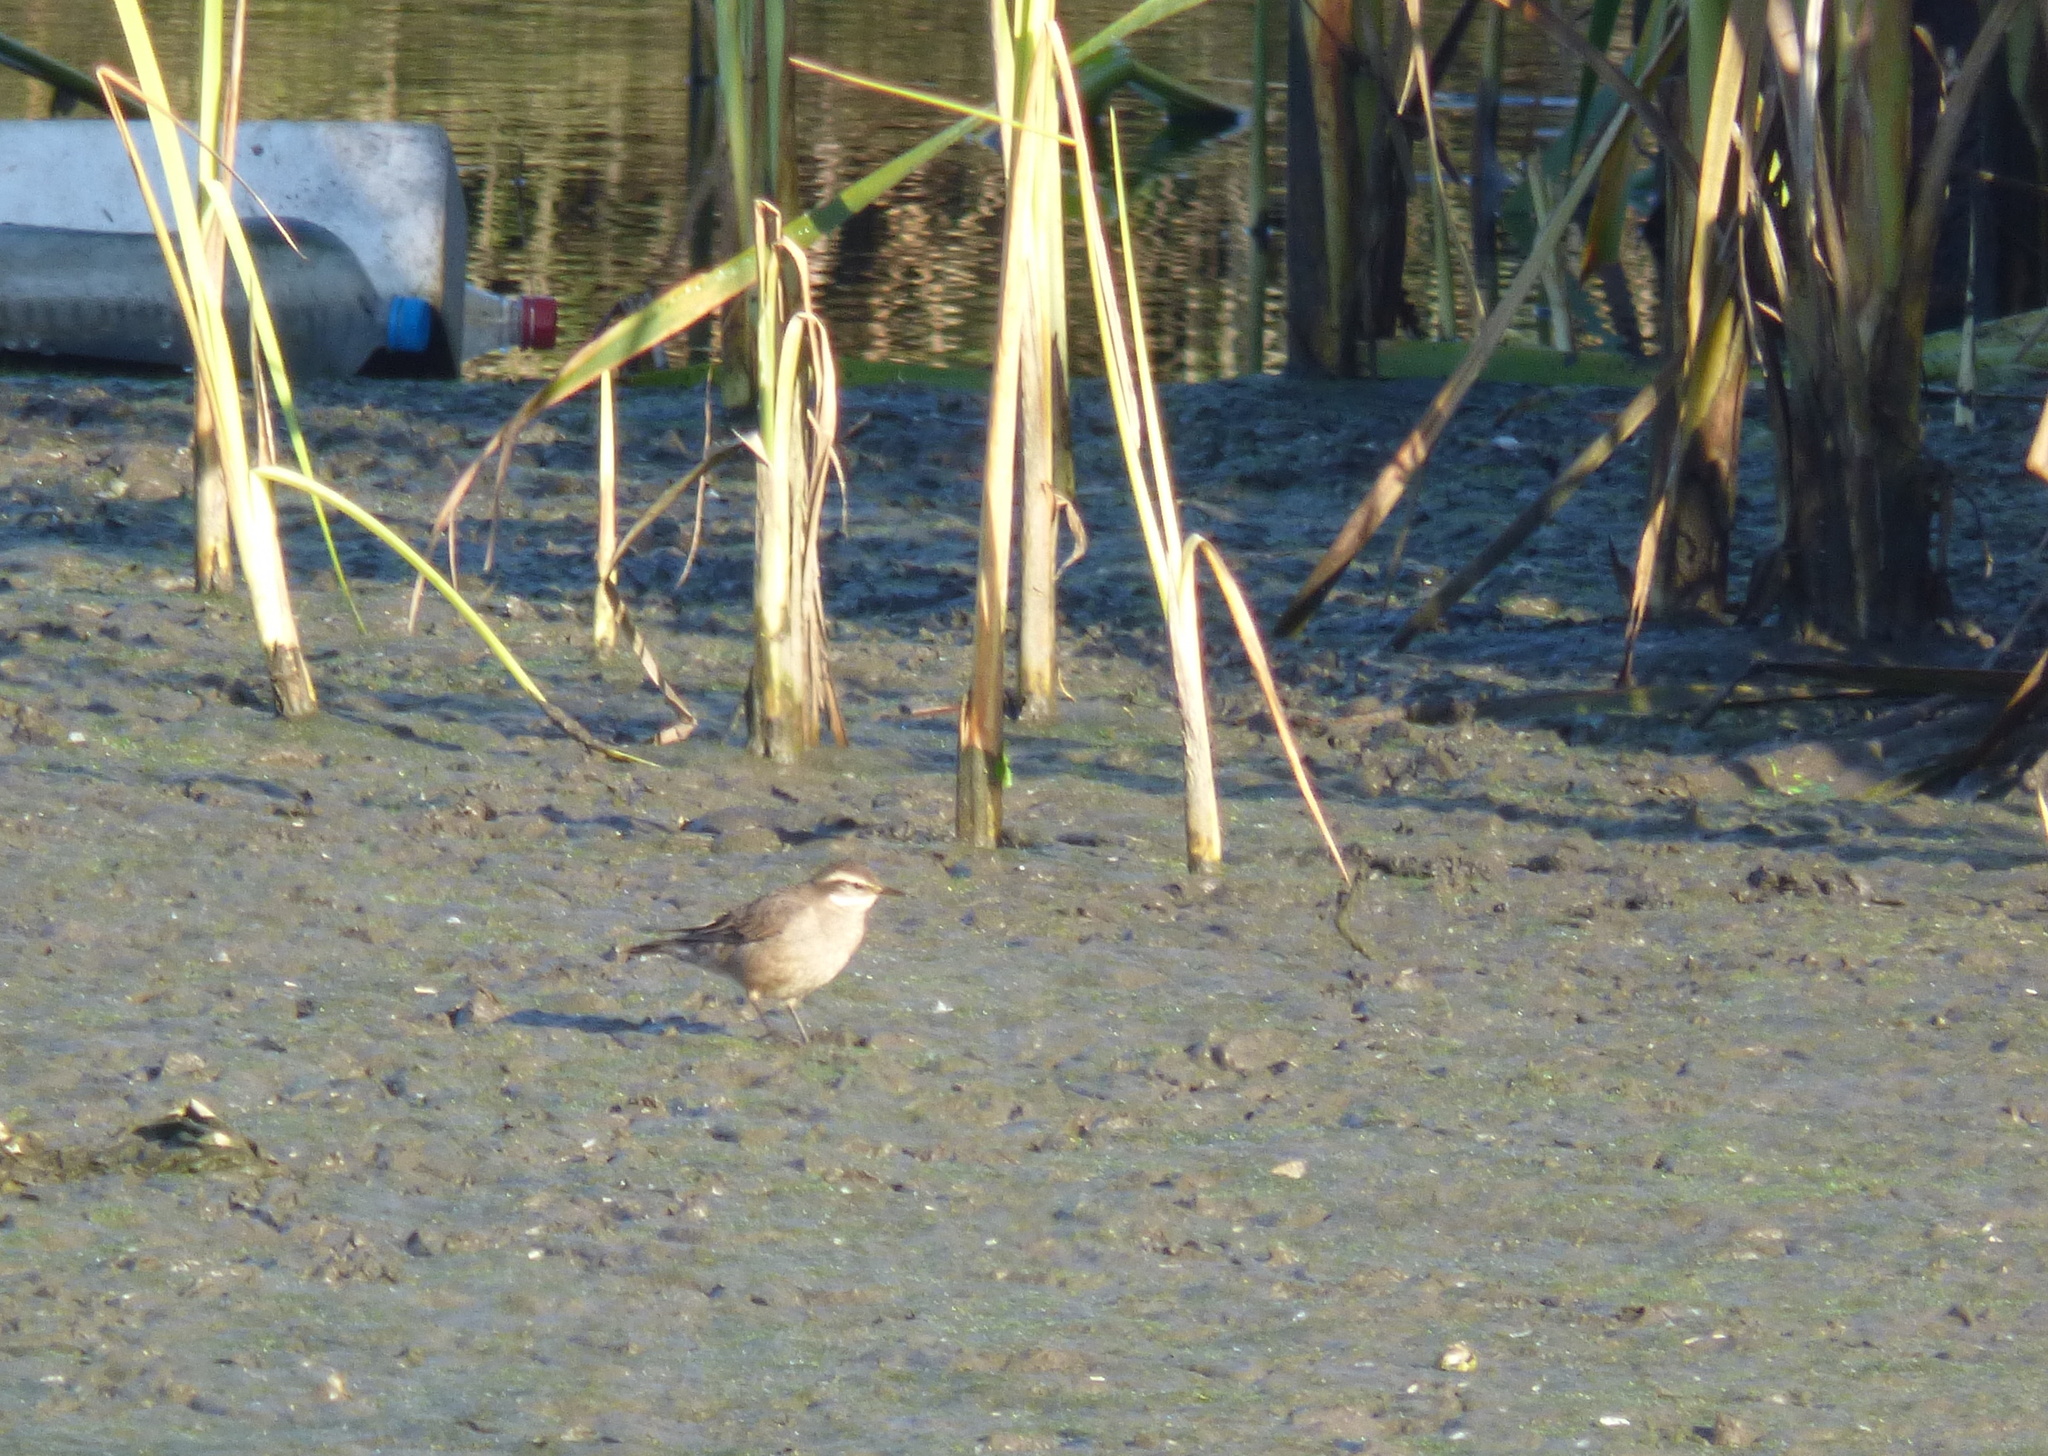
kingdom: Animalia
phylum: Chordata
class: Aves
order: Passeriformes
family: Furnariidae
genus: Cinclodes
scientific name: Cinclodes fuscus
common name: Buff-winged cinclodes
